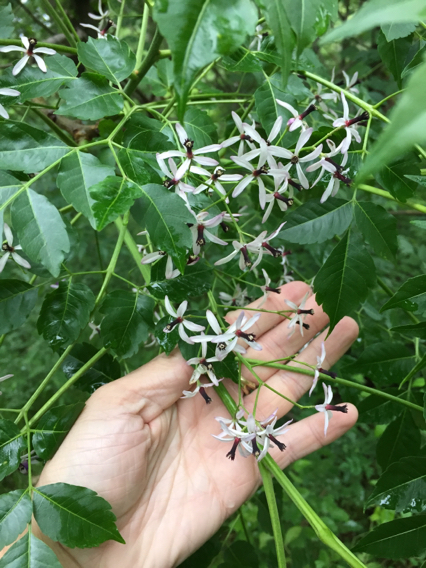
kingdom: Plantae
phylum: Tracheophyta
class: Magnoliopsida
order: Sapindales
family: Meliaceae
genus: Melia
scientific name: Melia azedarach
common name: Chinaberrytree
